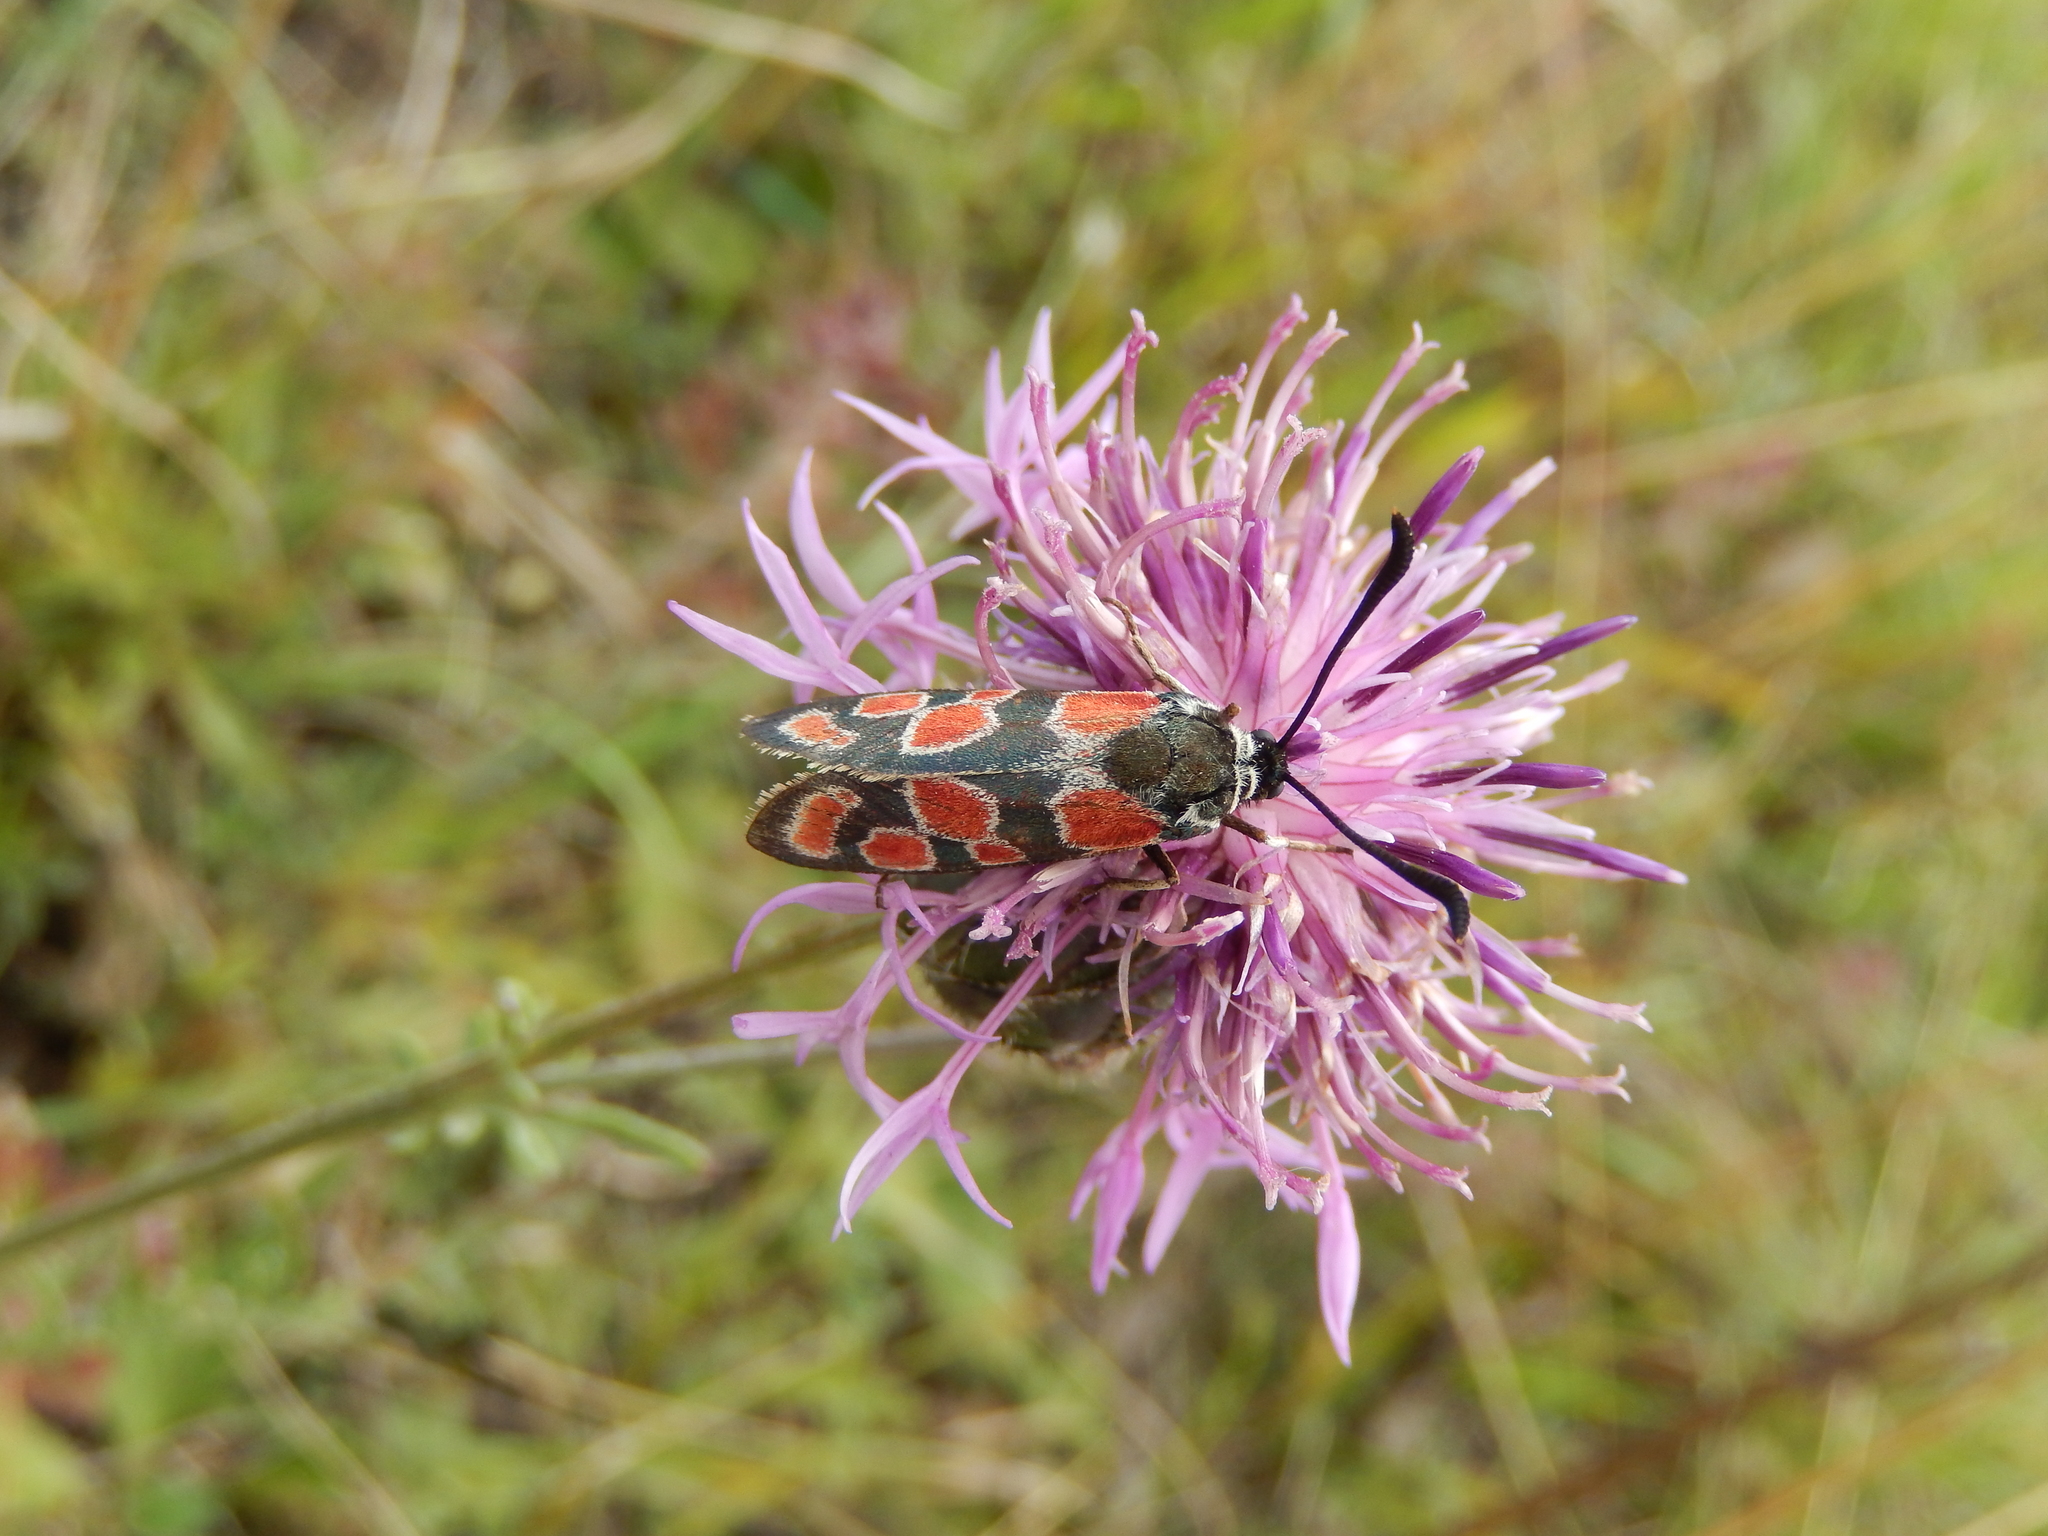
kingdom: Animalia
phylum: Arthropoda
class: Insecta
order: Lepidoptera
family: Zygaenidae
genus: Zygaena
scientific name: Zygaena carniolica
